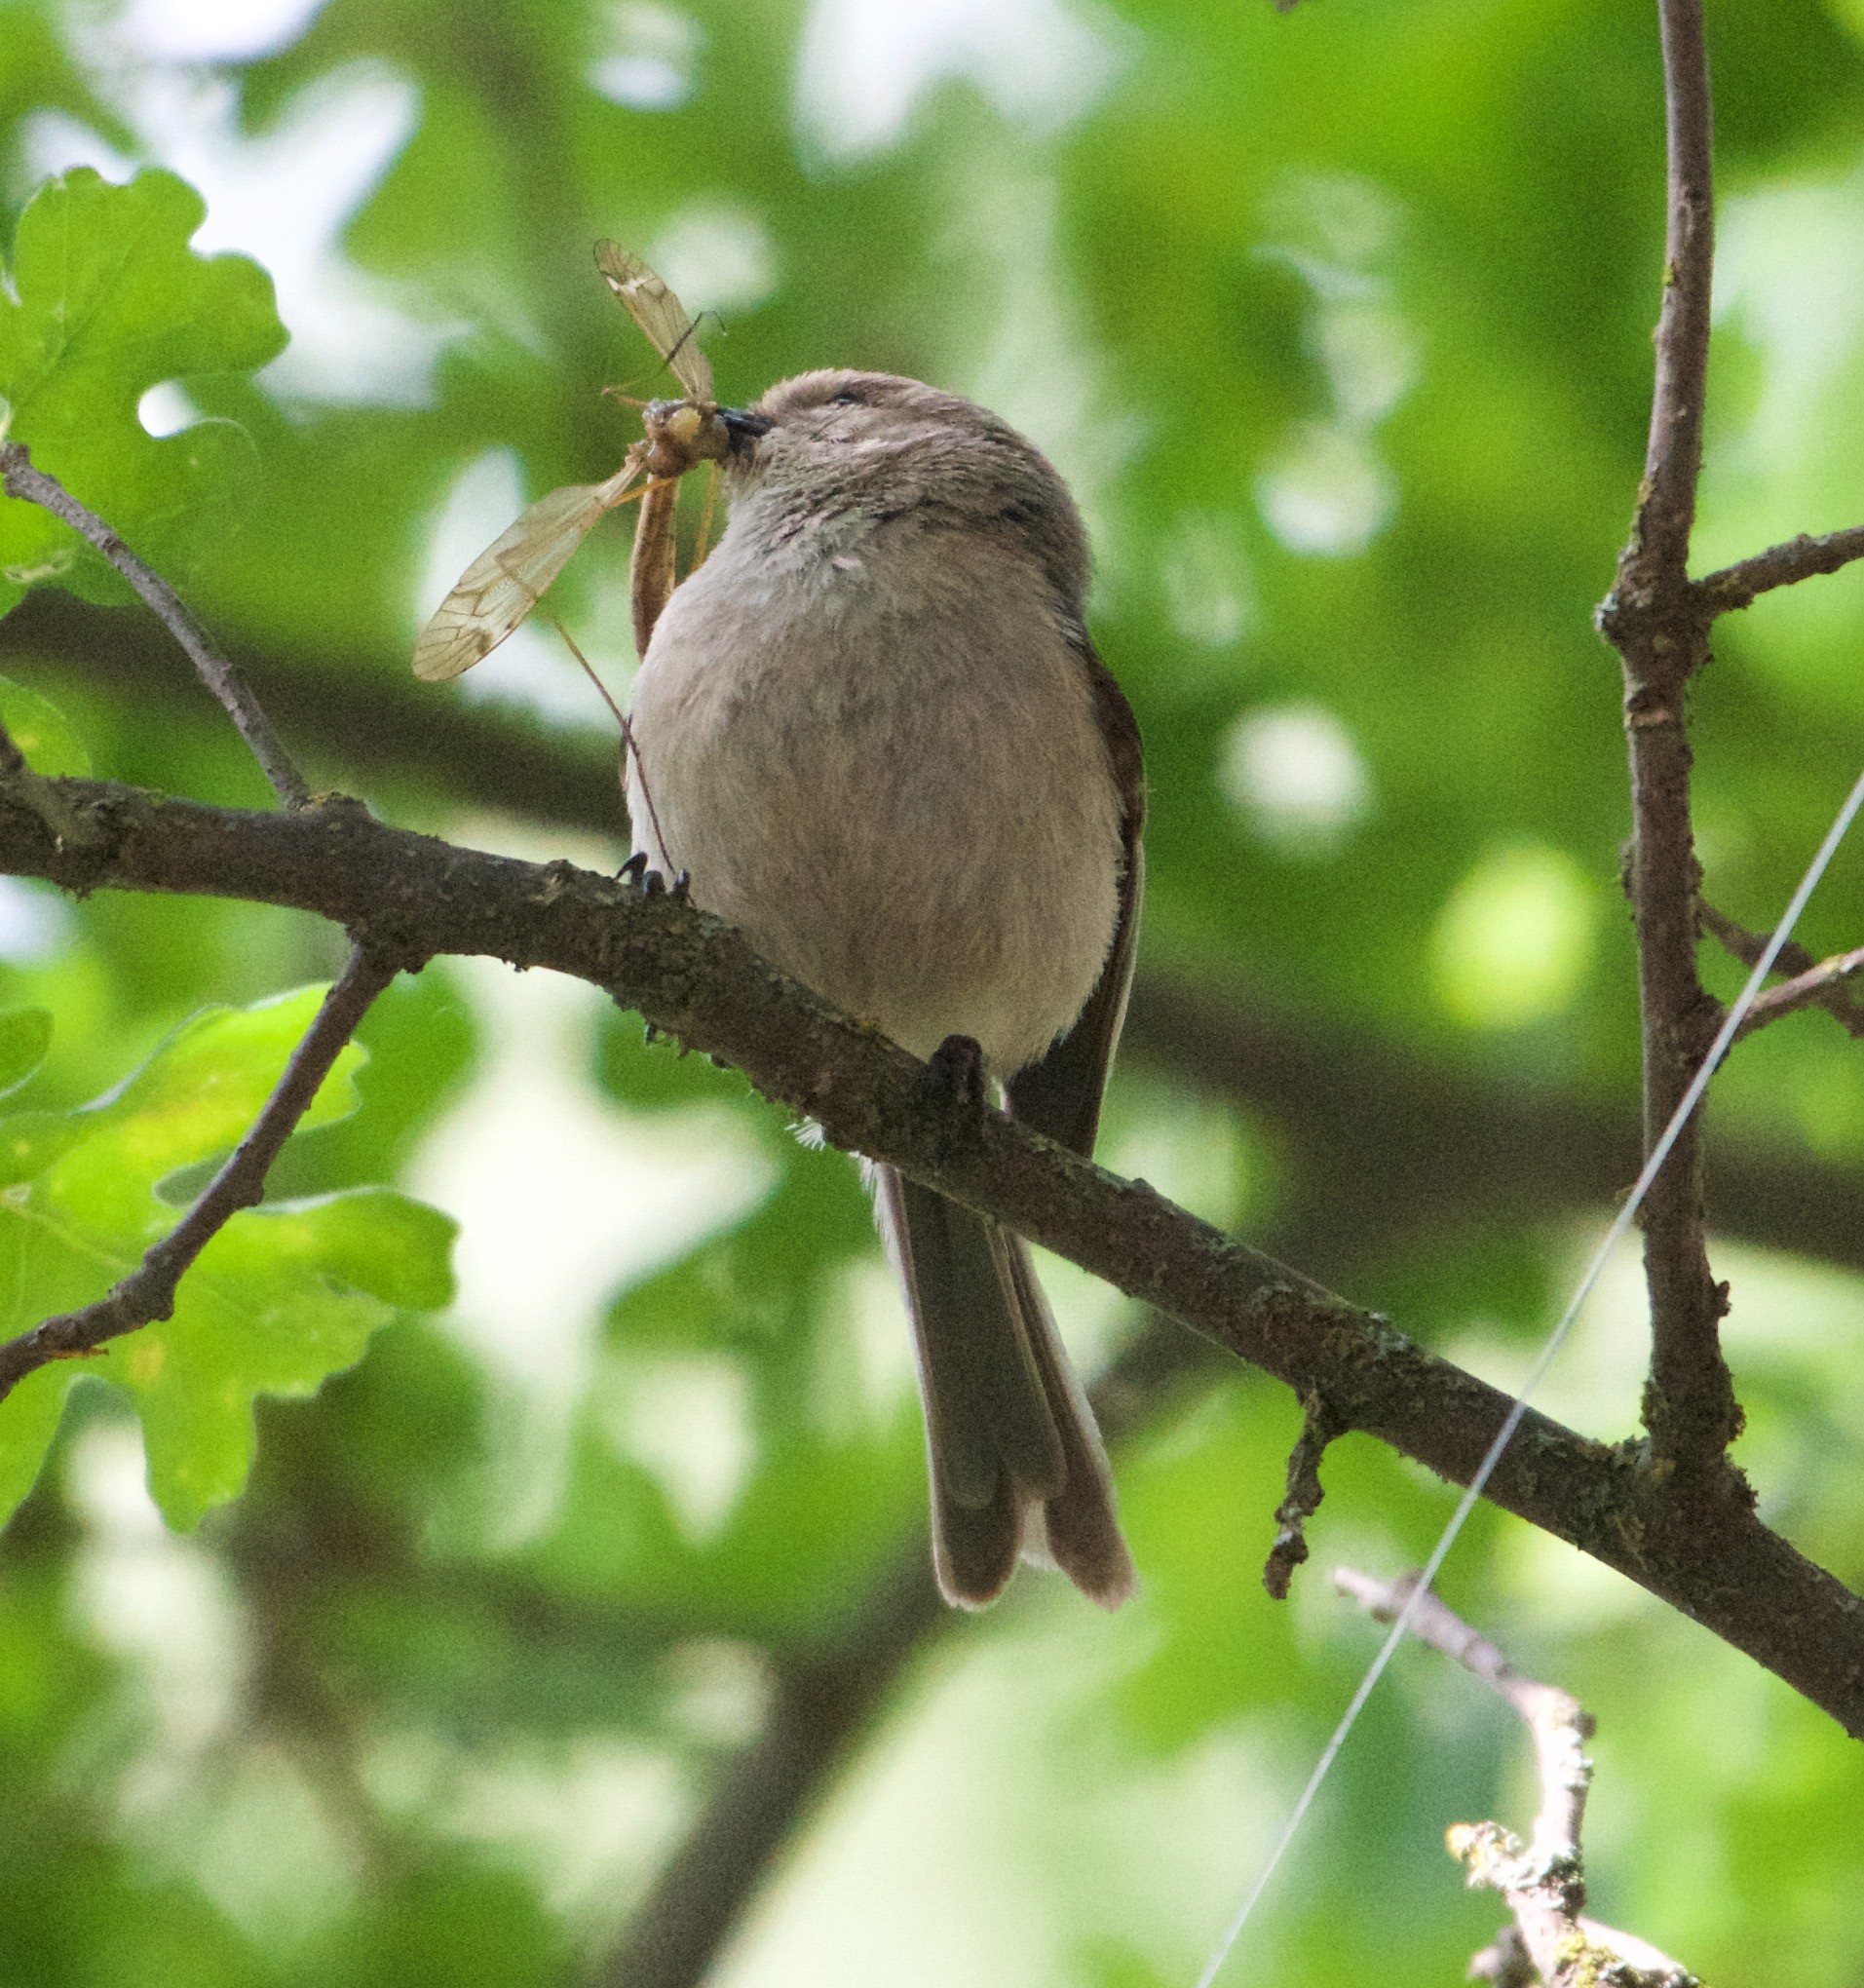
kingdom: Animalia
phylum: Chordata
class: Aves
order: Passeriformes
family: Aegithalidae
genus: Psaltriparus
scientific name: Psaltriparus minimus
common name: American bushtit
